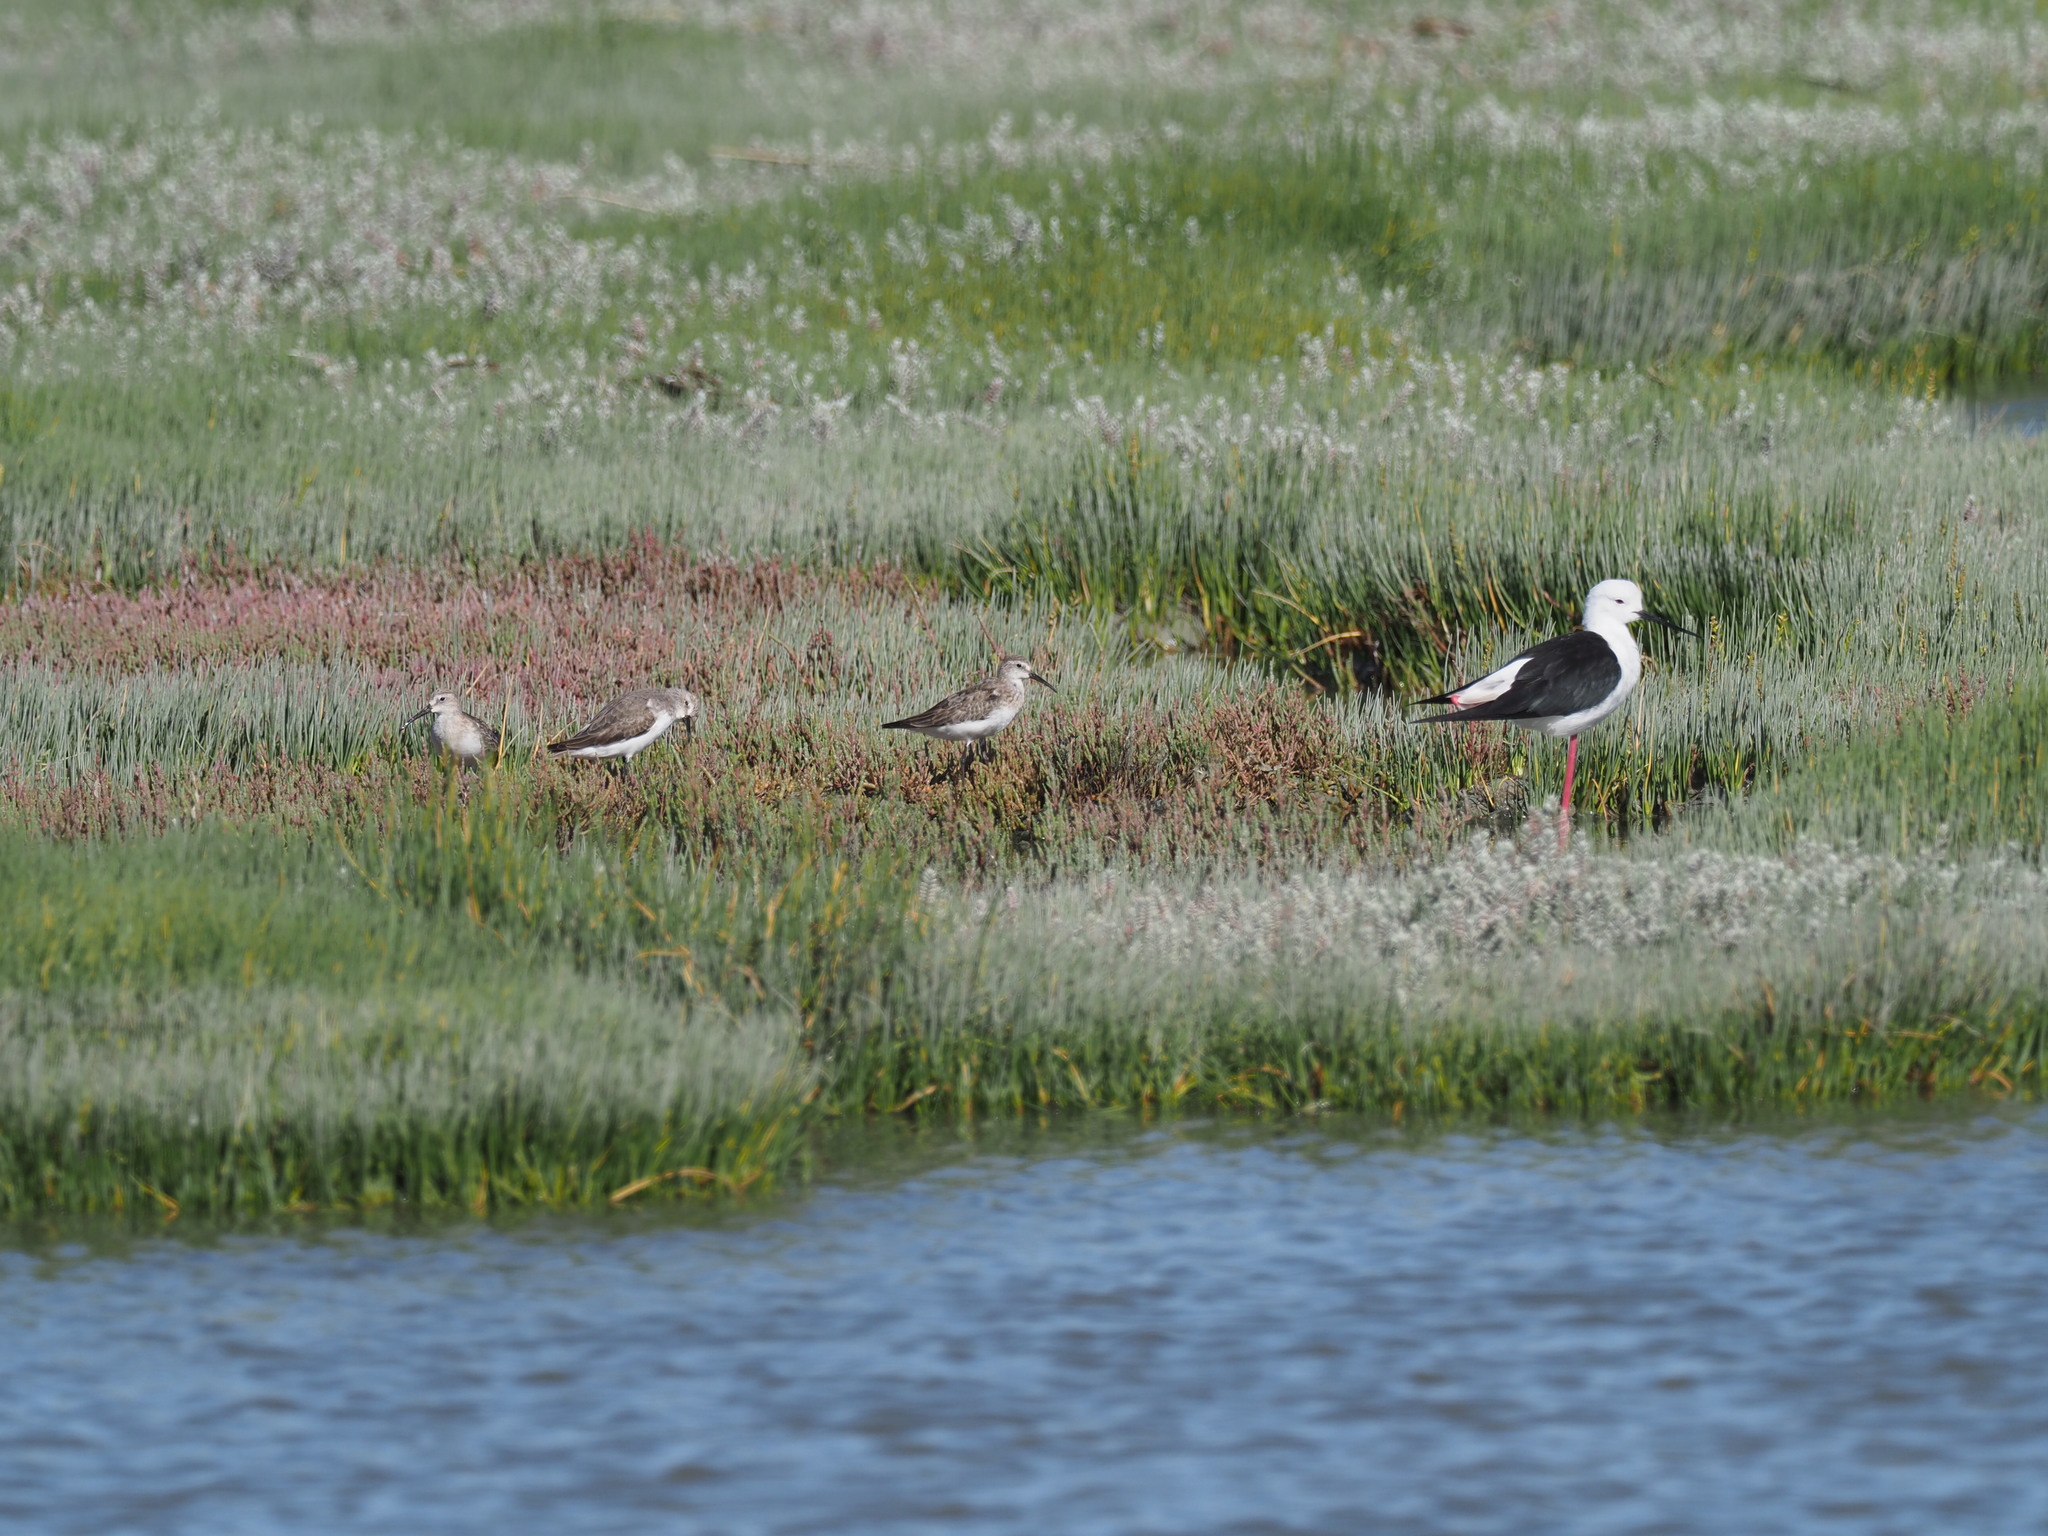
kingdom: Animalia
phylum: Chordata
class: Aves
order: Charadriiformes
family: Recurvirostridae
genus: Himantopus
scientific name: Himantopus himantopus
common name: Black-winged stilt
